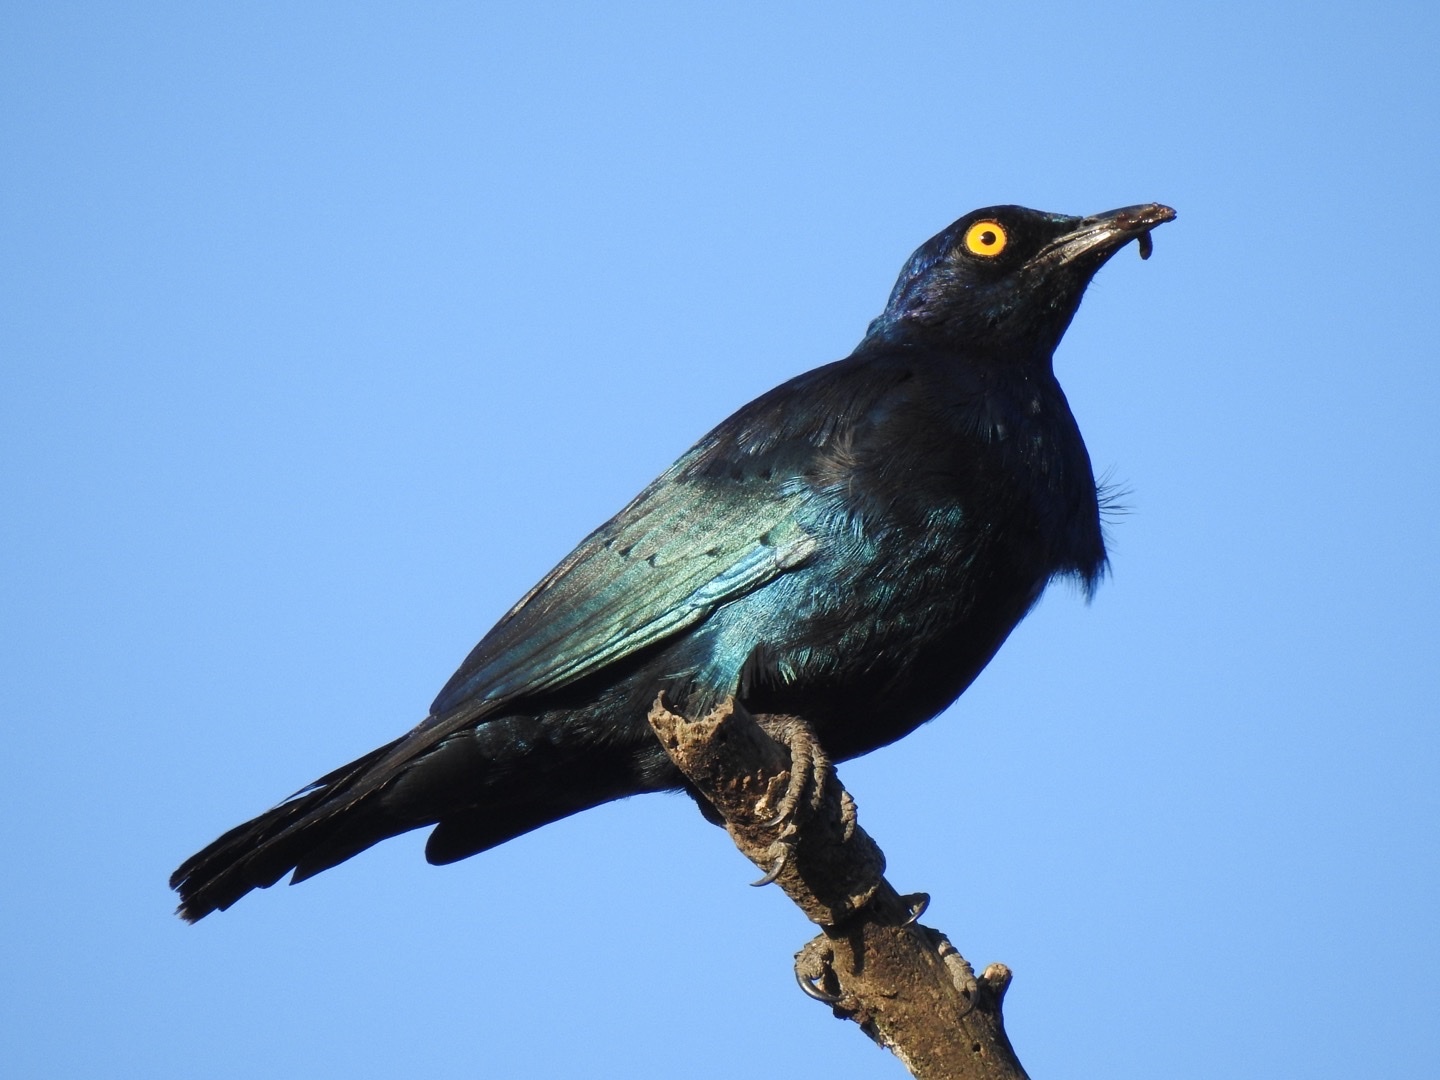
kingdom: Animalia
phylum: Chordata
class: Aves
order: Passeriformes
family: Sturnidae
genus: Lamprotornis
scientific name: Lamprotornis nitens
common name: Cape starling
